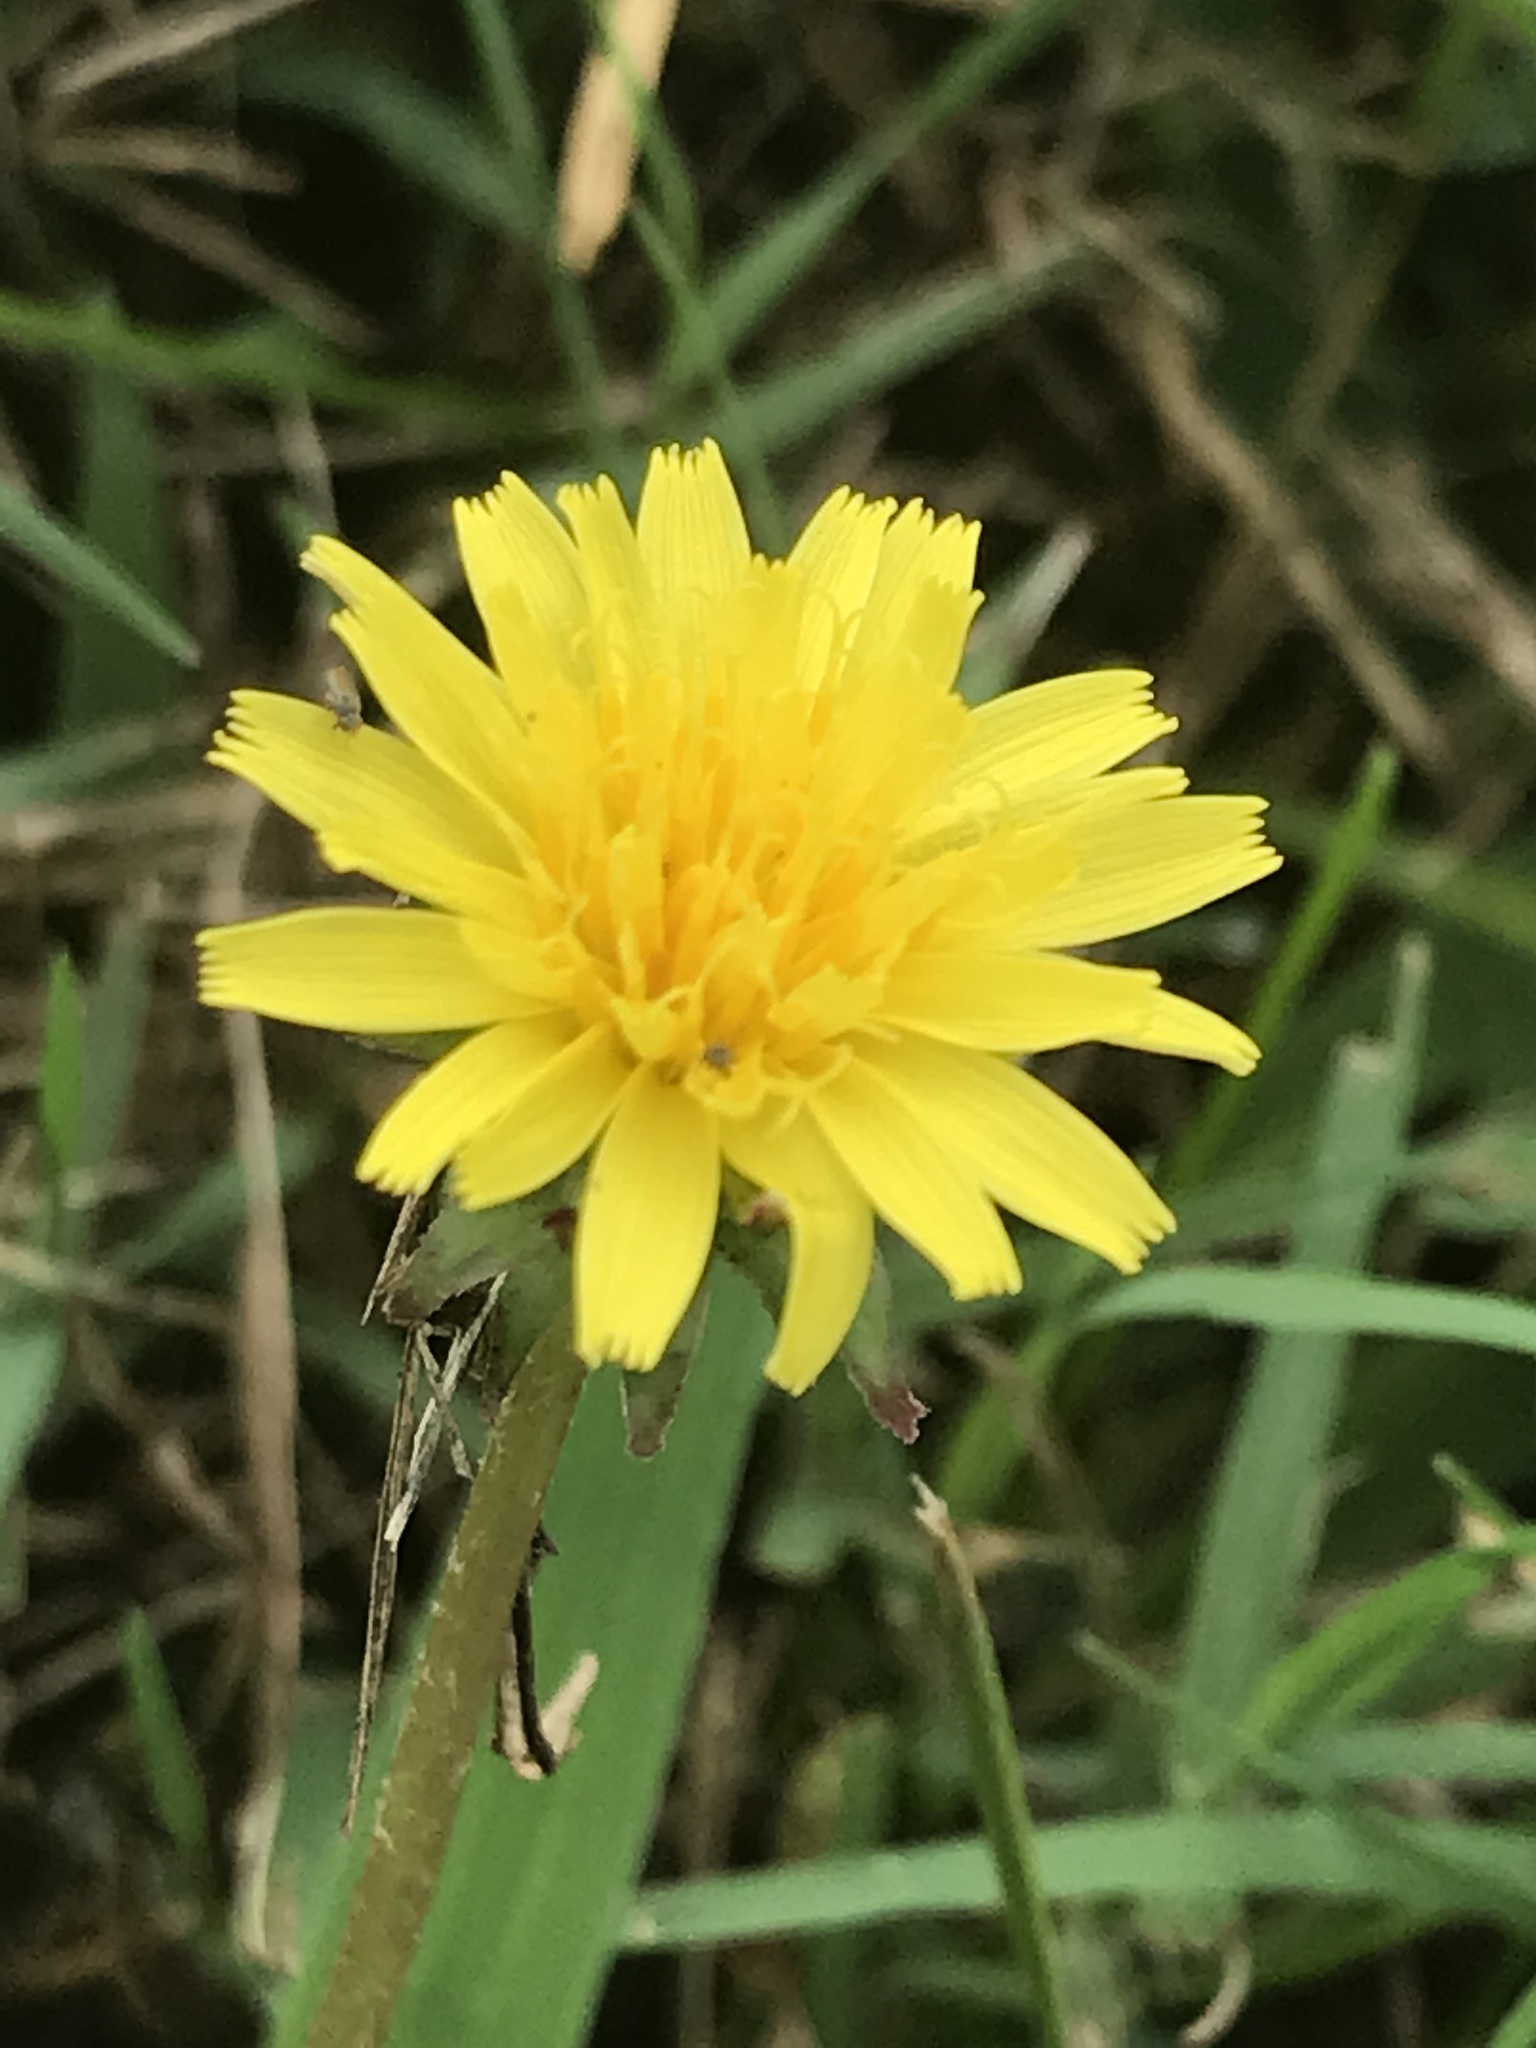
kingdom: Plantae
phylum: Tracheophyta
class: Magnoliopsida
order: Asterales
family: Asteraceae
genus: Taraxacum
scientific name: Taraxacum
